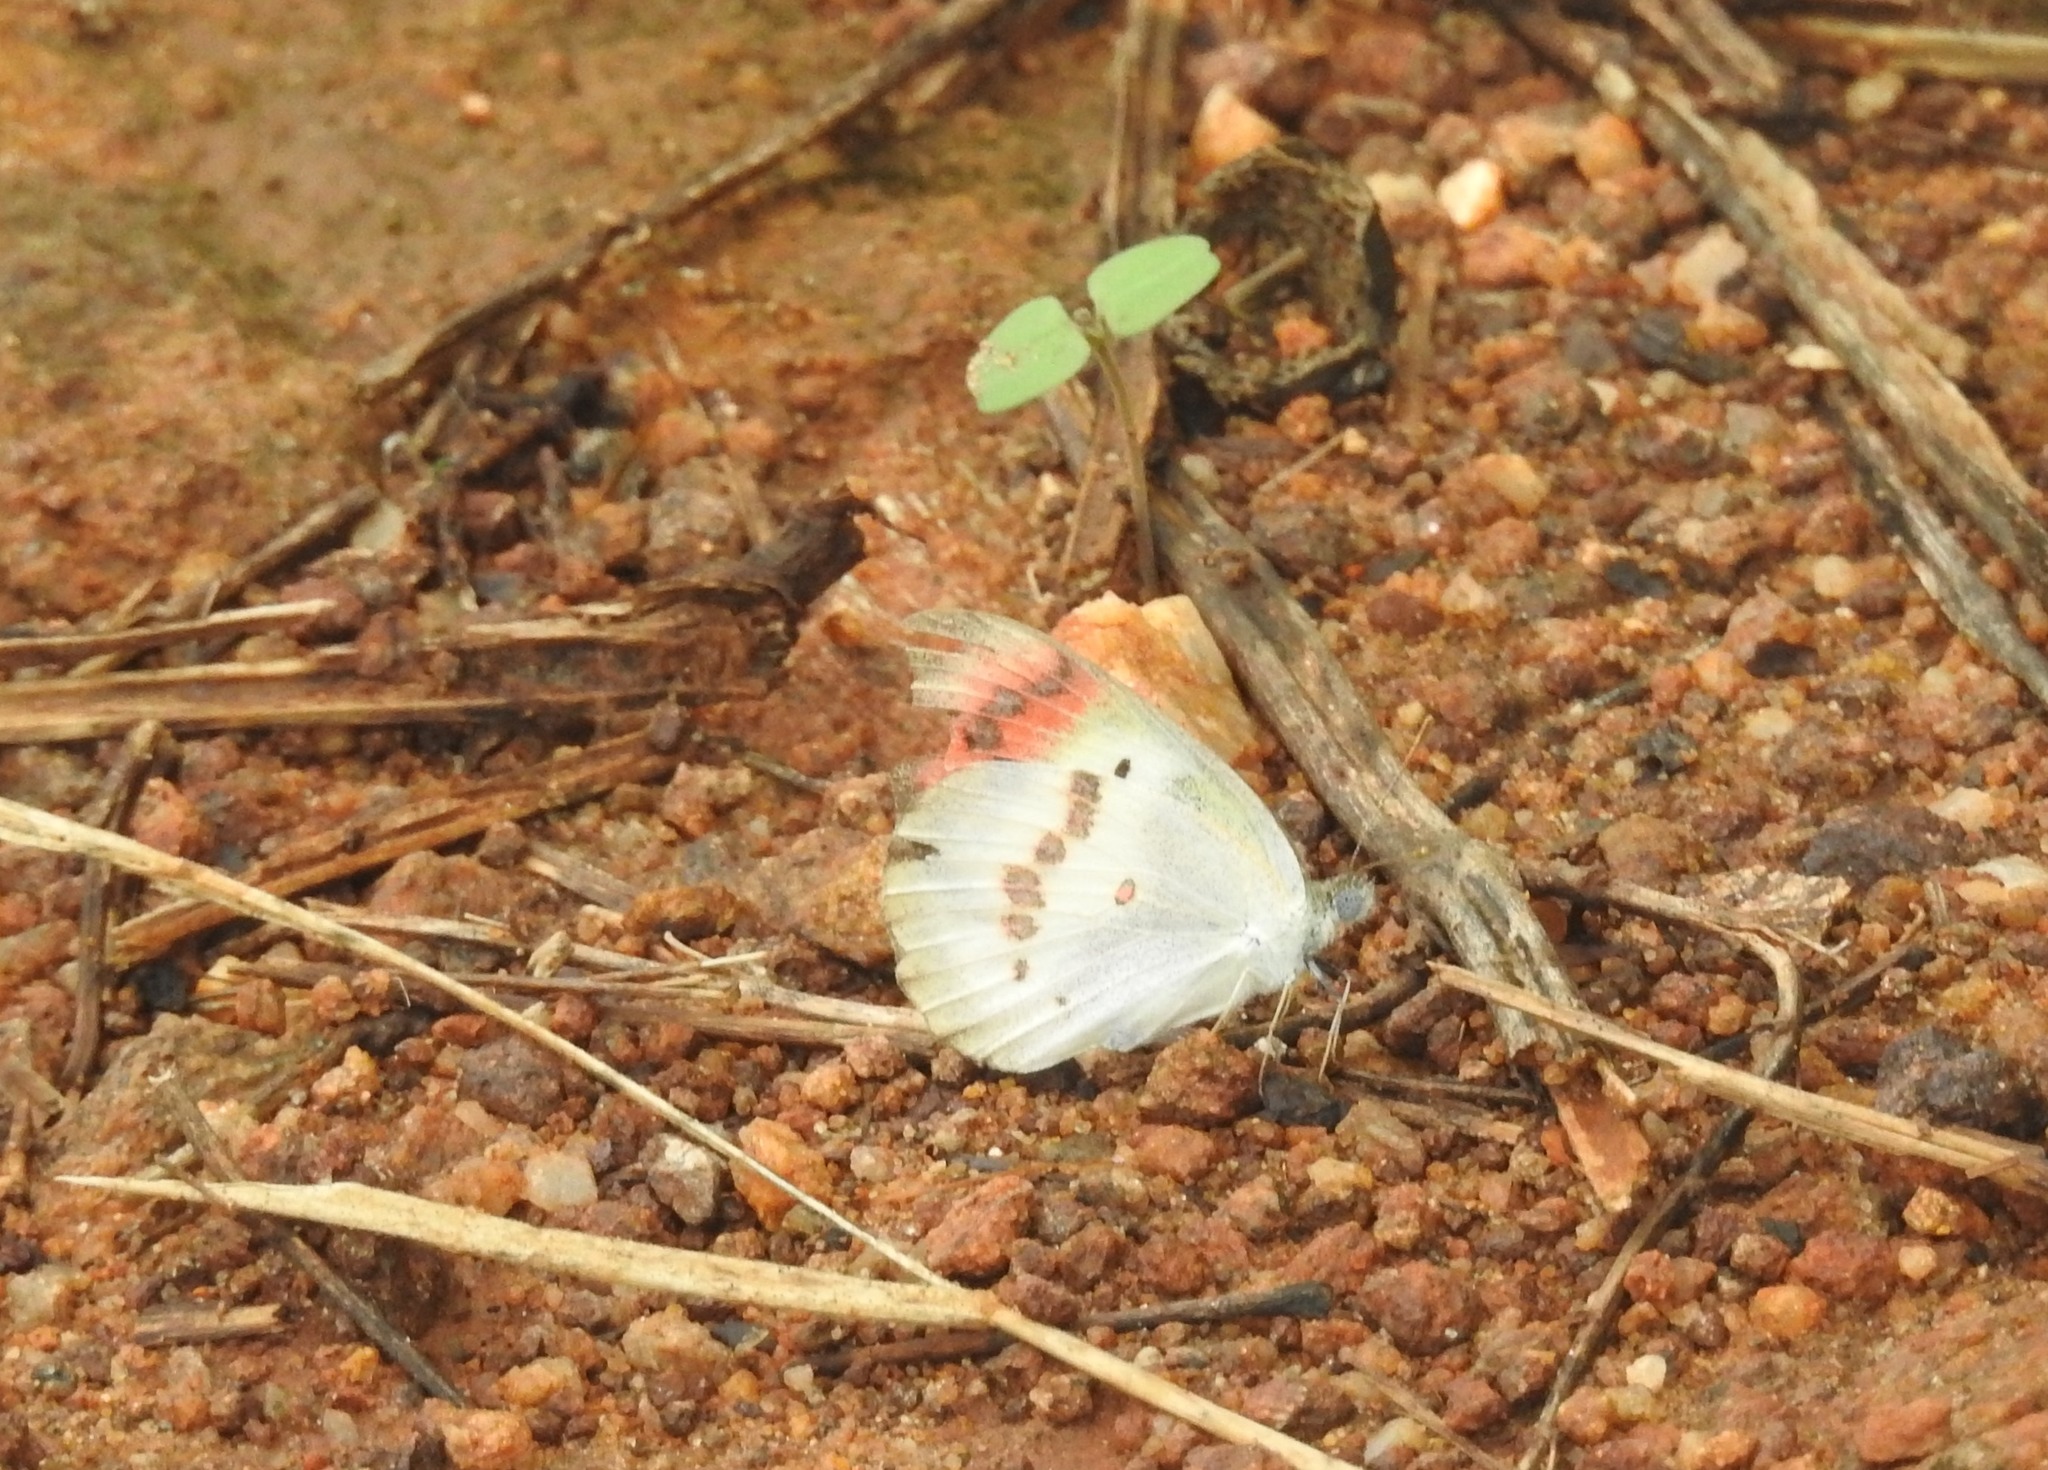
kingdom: Animalia
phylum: Arthropoda
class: Insecta
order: Lepidoptera
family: Pieridae
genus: Colotis
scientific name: Colotis danae
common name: Crimson tip
